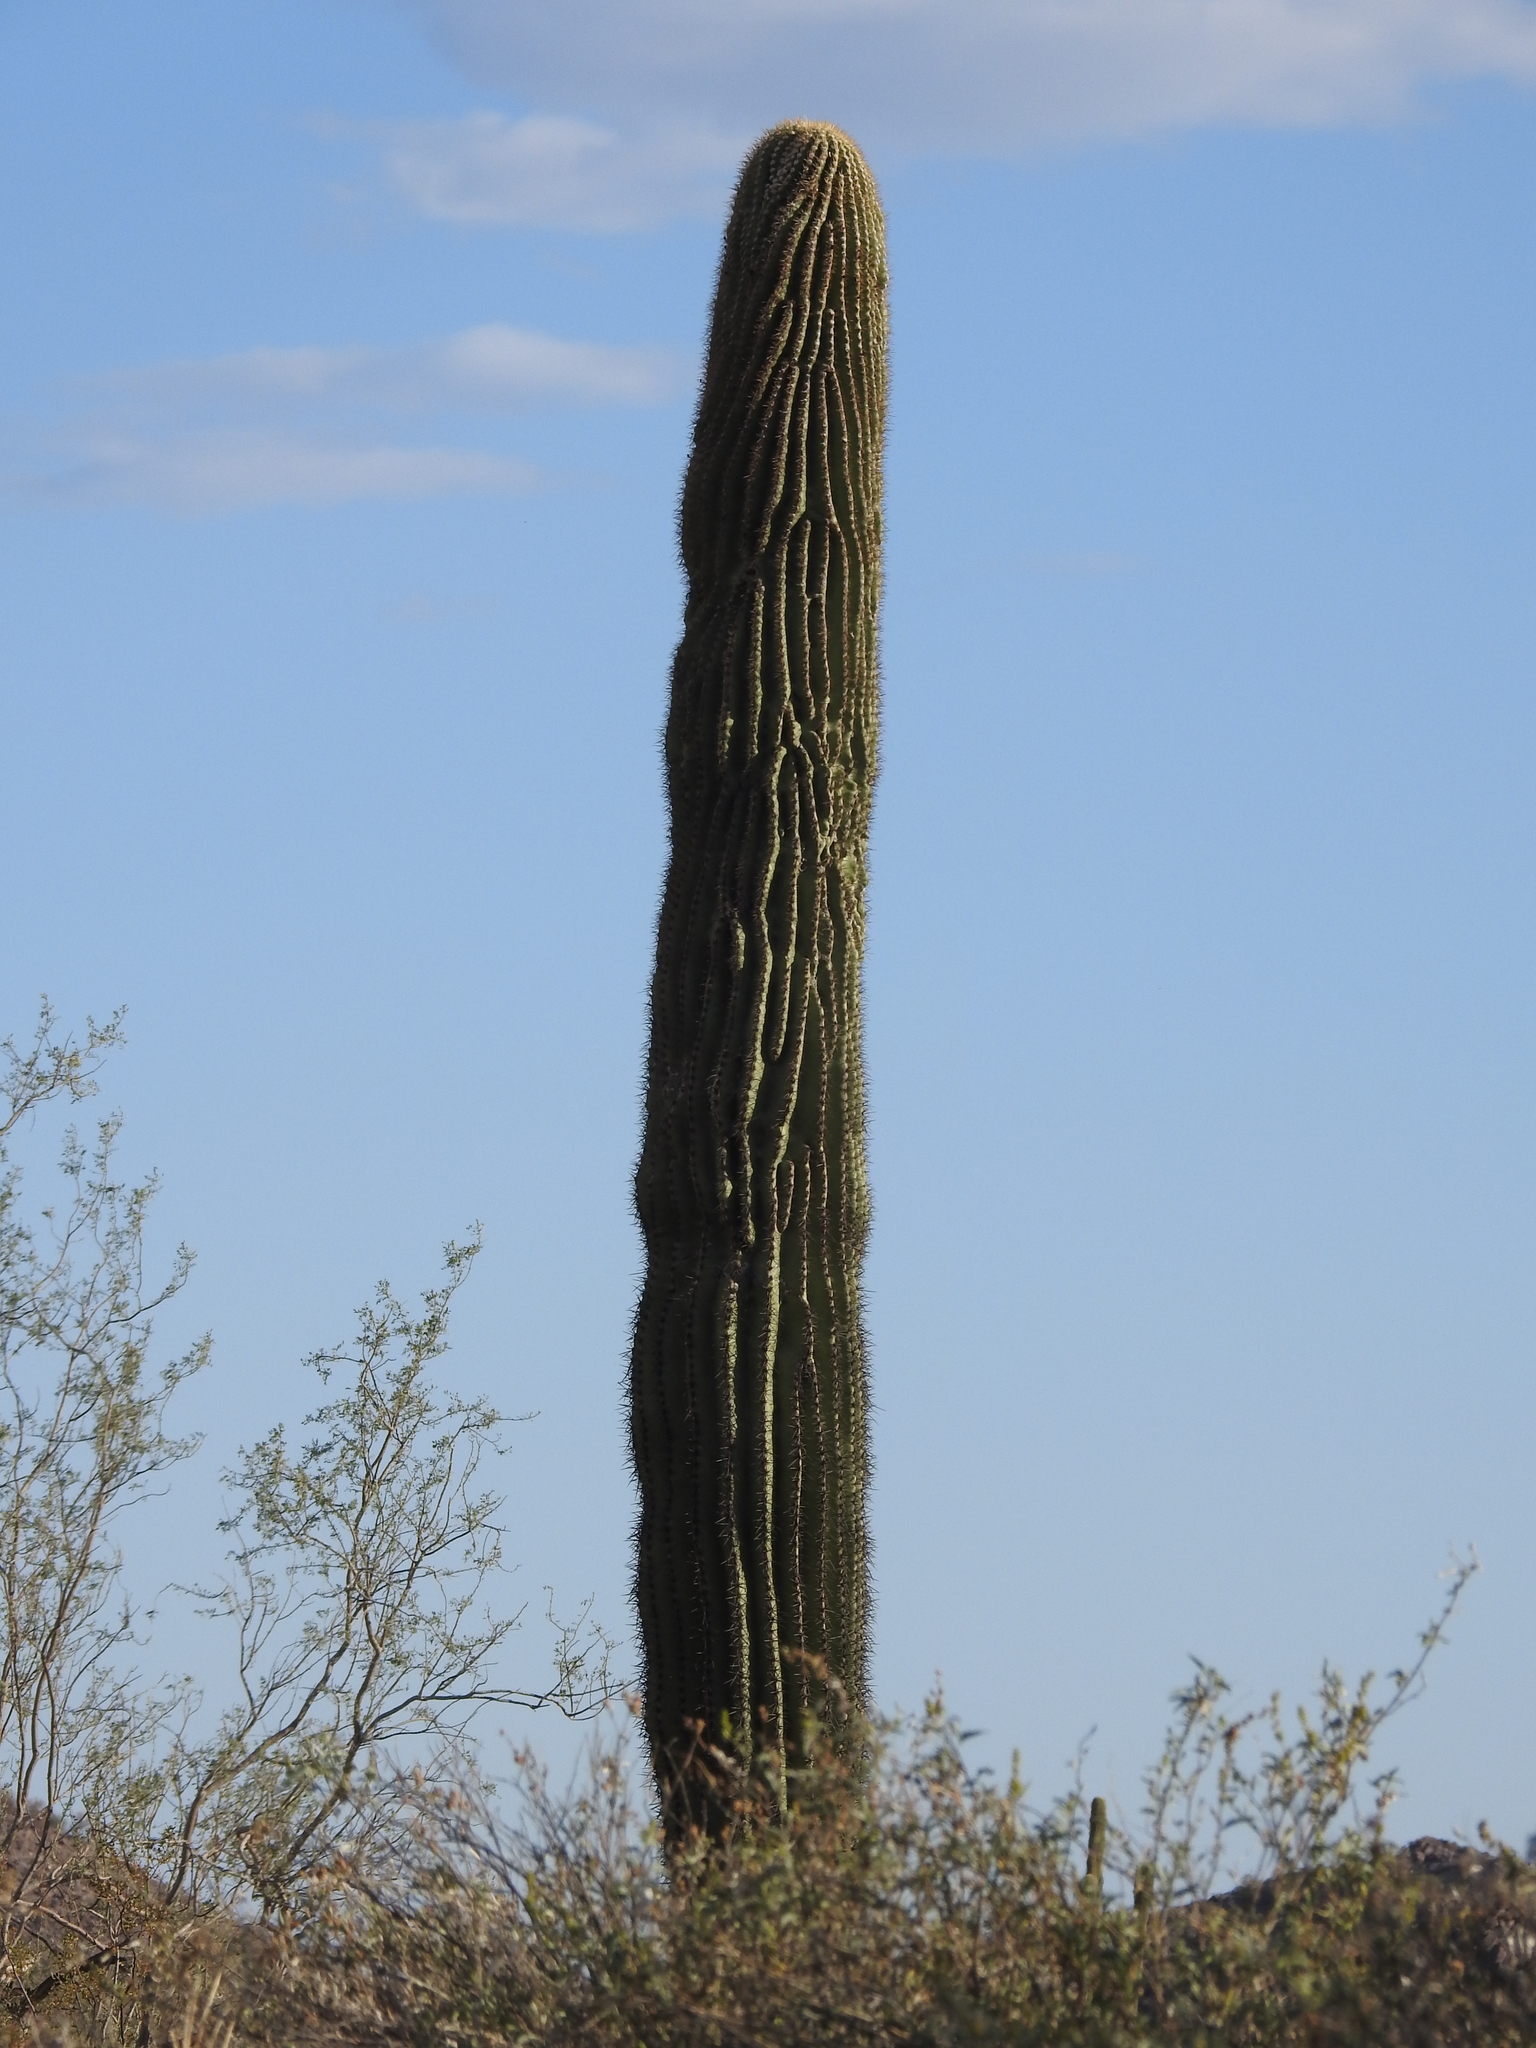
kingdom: Plantae
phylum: Tracheophyta
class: Magnoliopsida
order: Caryophyllales
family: Cactaceae
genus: Carnegiea
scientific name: Carnegiea gigantea
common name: Saguaro
